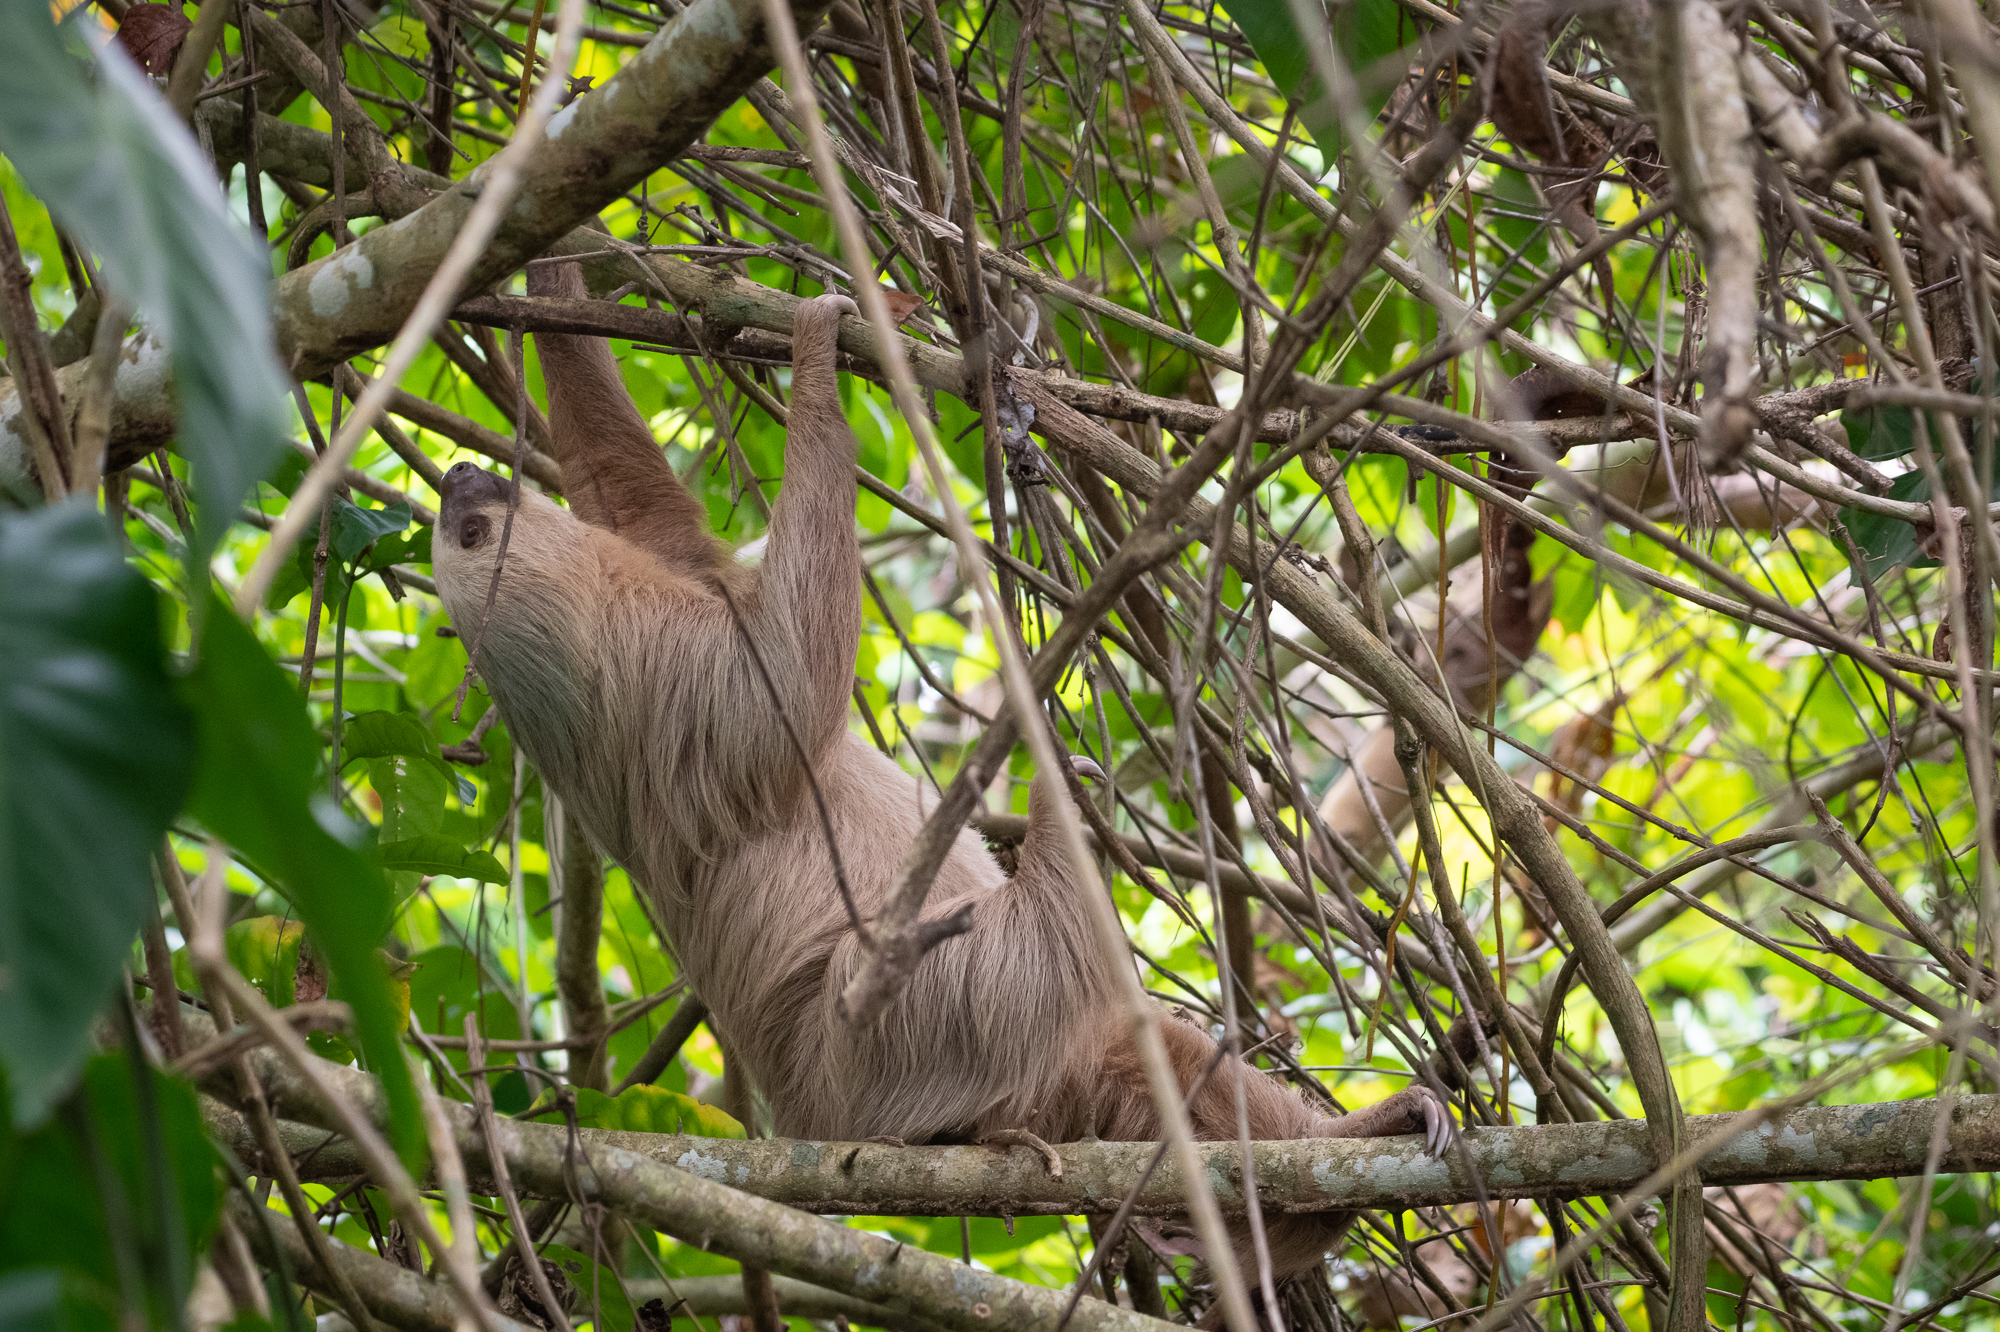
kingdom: Animalia
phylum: Chordata
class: Mammalia
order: Pilosa
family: Megalonychidae
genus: Choloepus
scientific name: Choloepus hoffmanni
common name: Hoffmann's two-toed sloth
